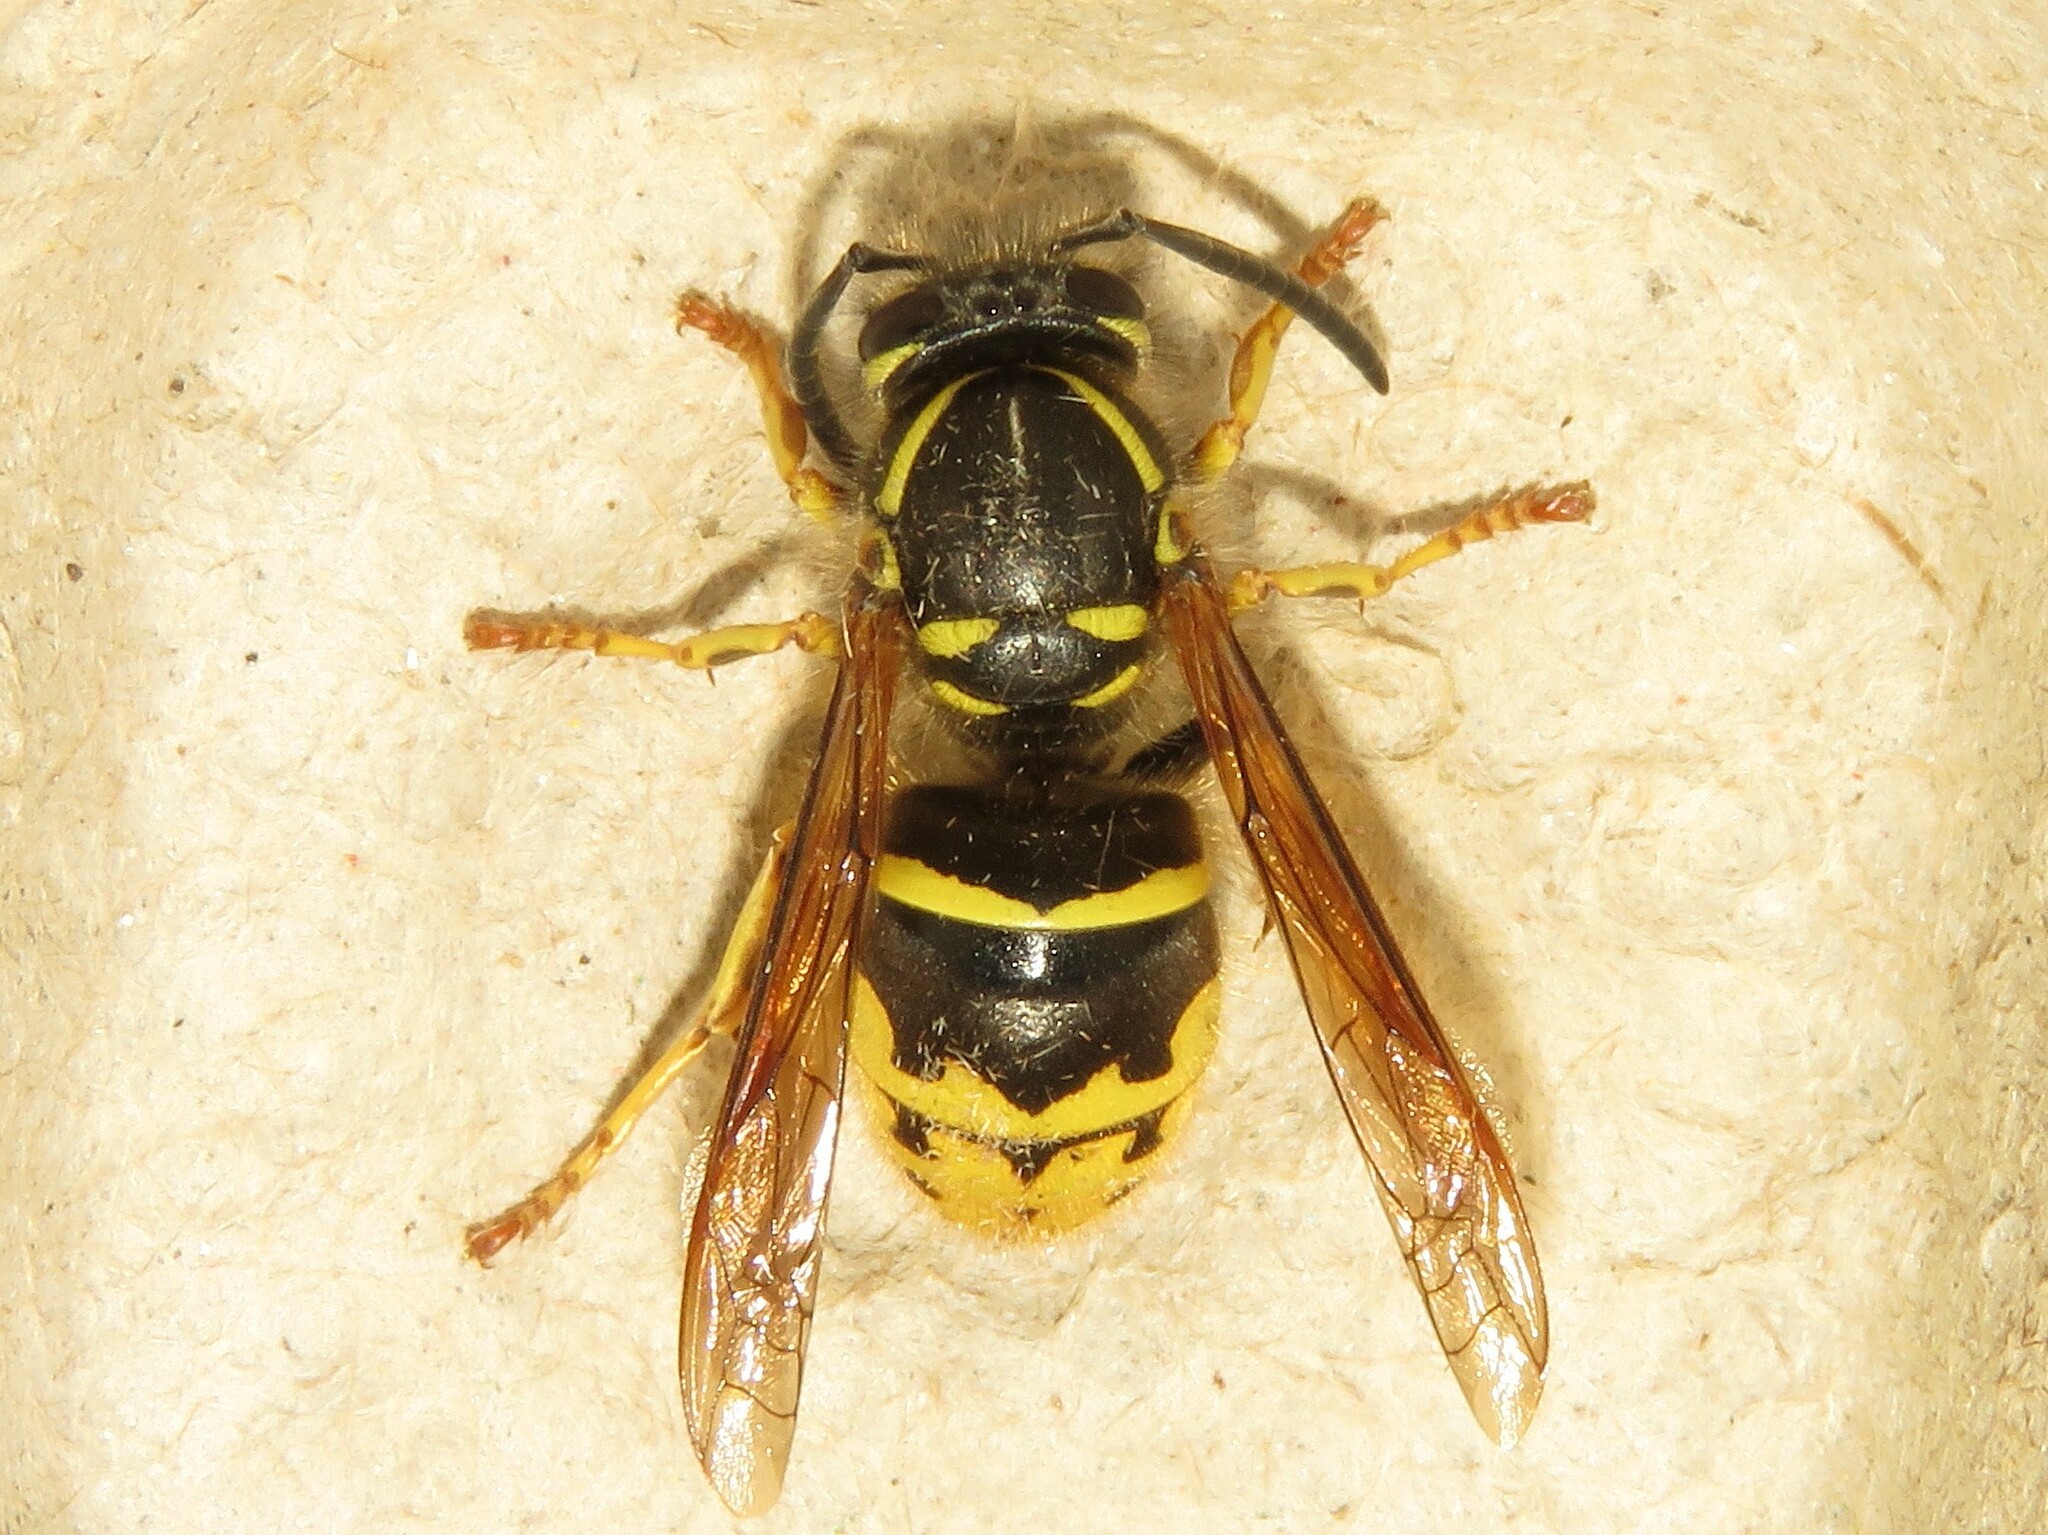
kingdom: Animalia
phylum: Arthropoda
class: Insecta
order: Hymenoptera
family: Vespidae
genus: Vespula
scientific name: Vespula alascensis
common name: Alaska yellowjacket
